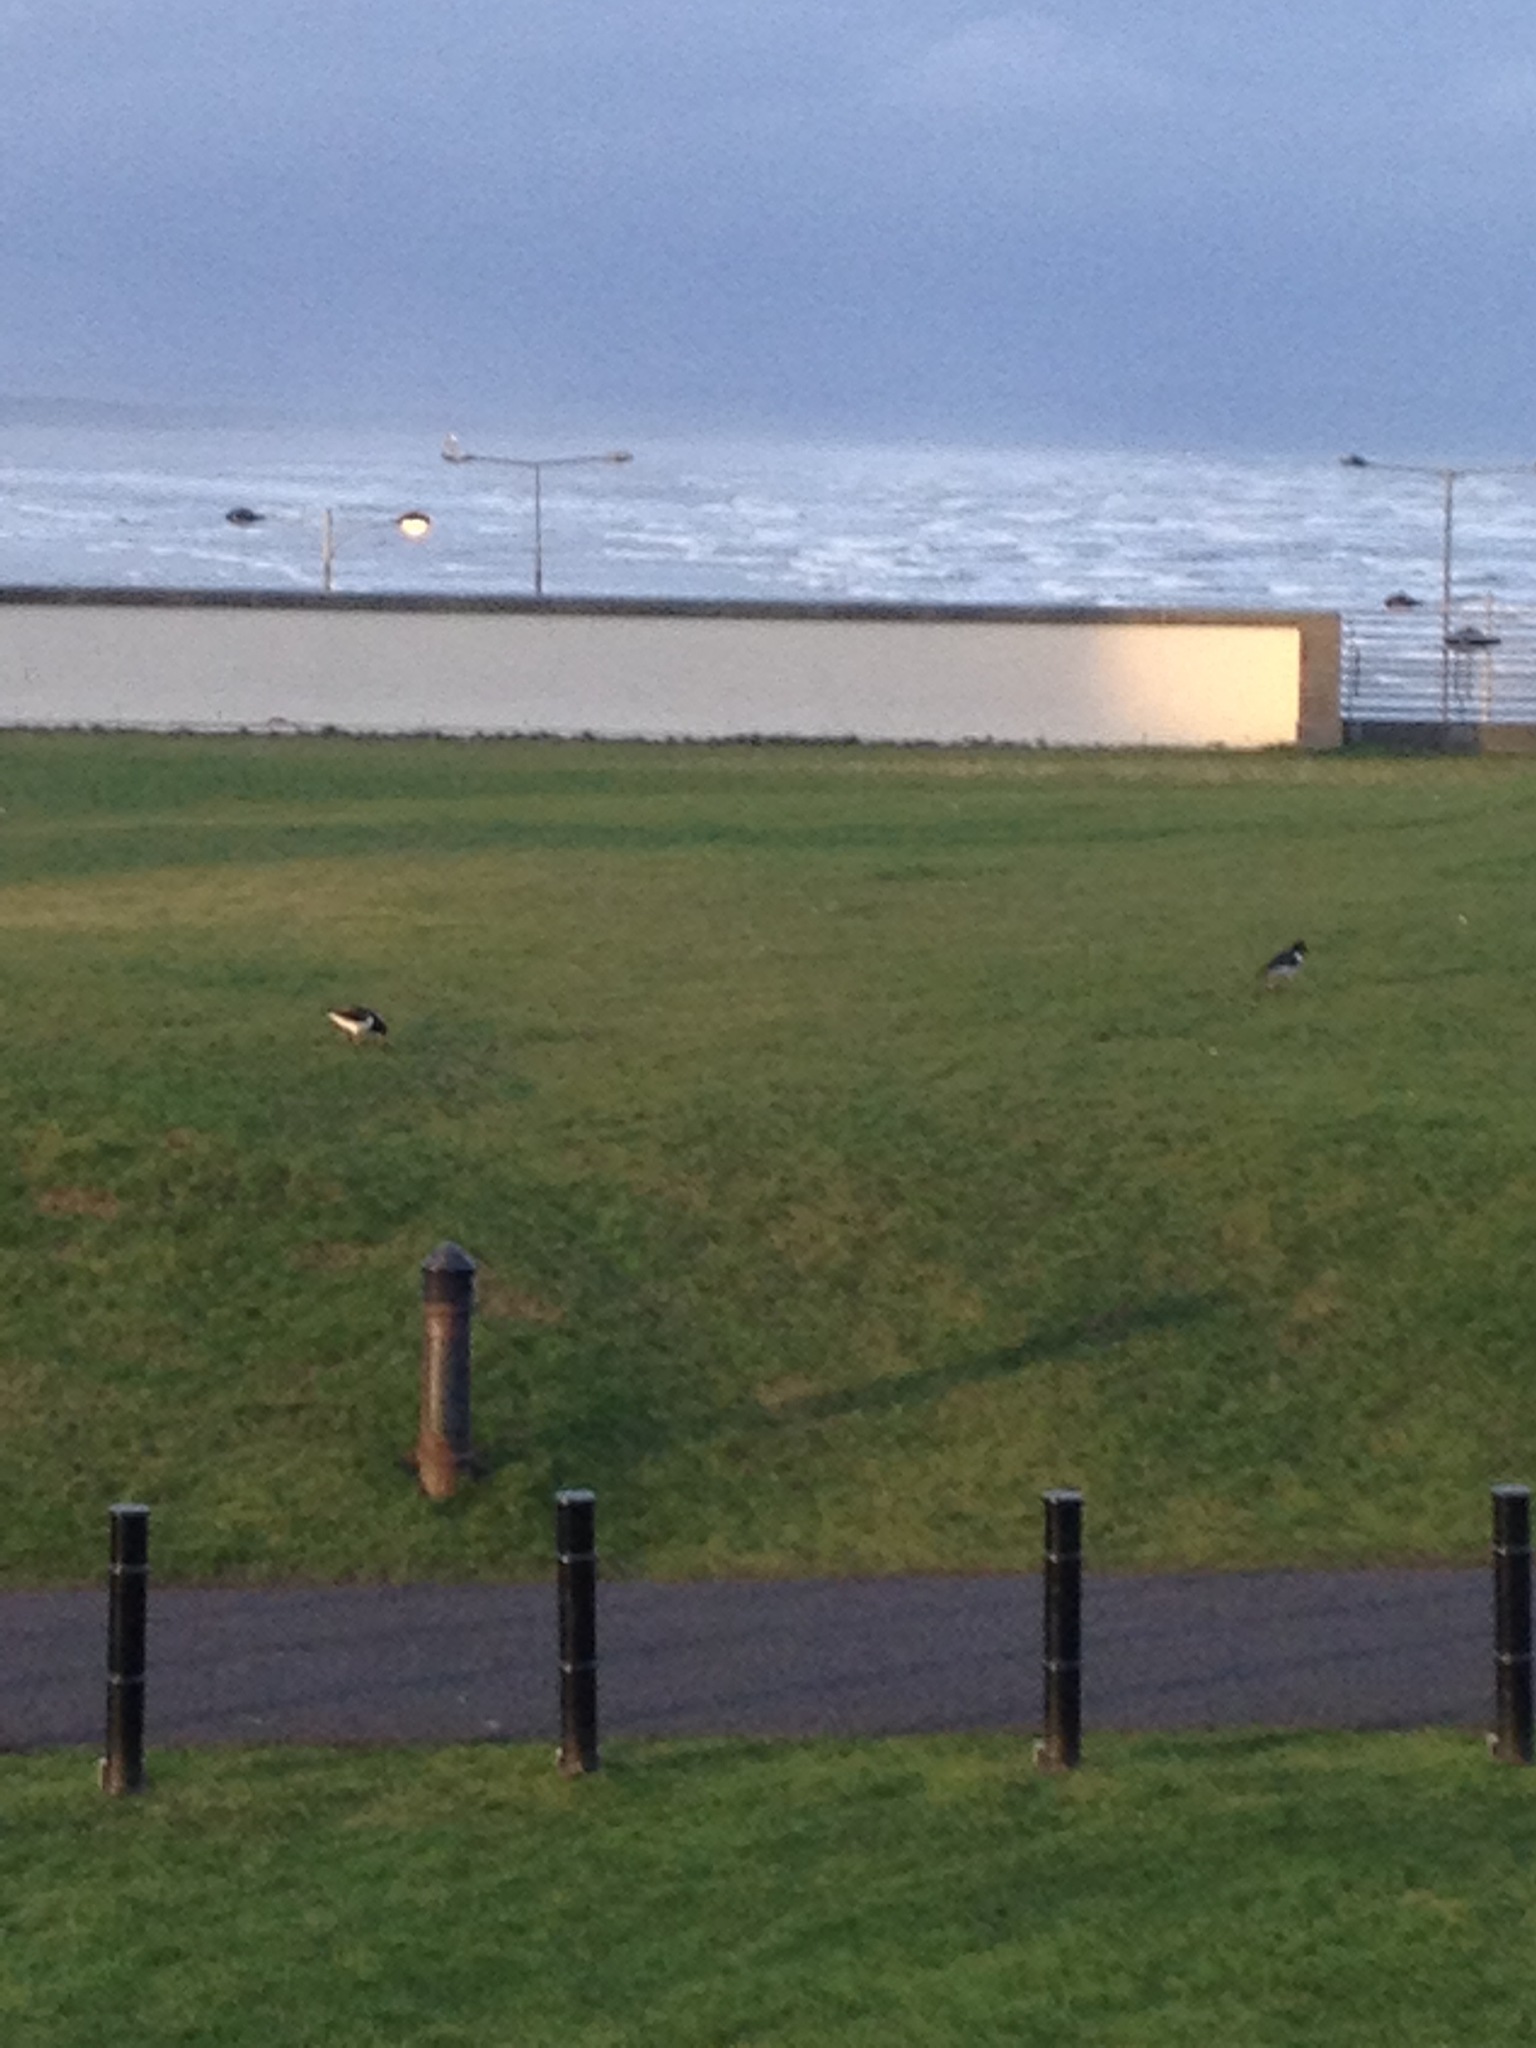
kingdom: Animalia
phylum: Chordata
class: Aves
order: Charadriiformes
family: Haematopodidae
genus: Haematopus
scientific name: Haematopus ostralegus
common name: Eurasian oystercatcher
